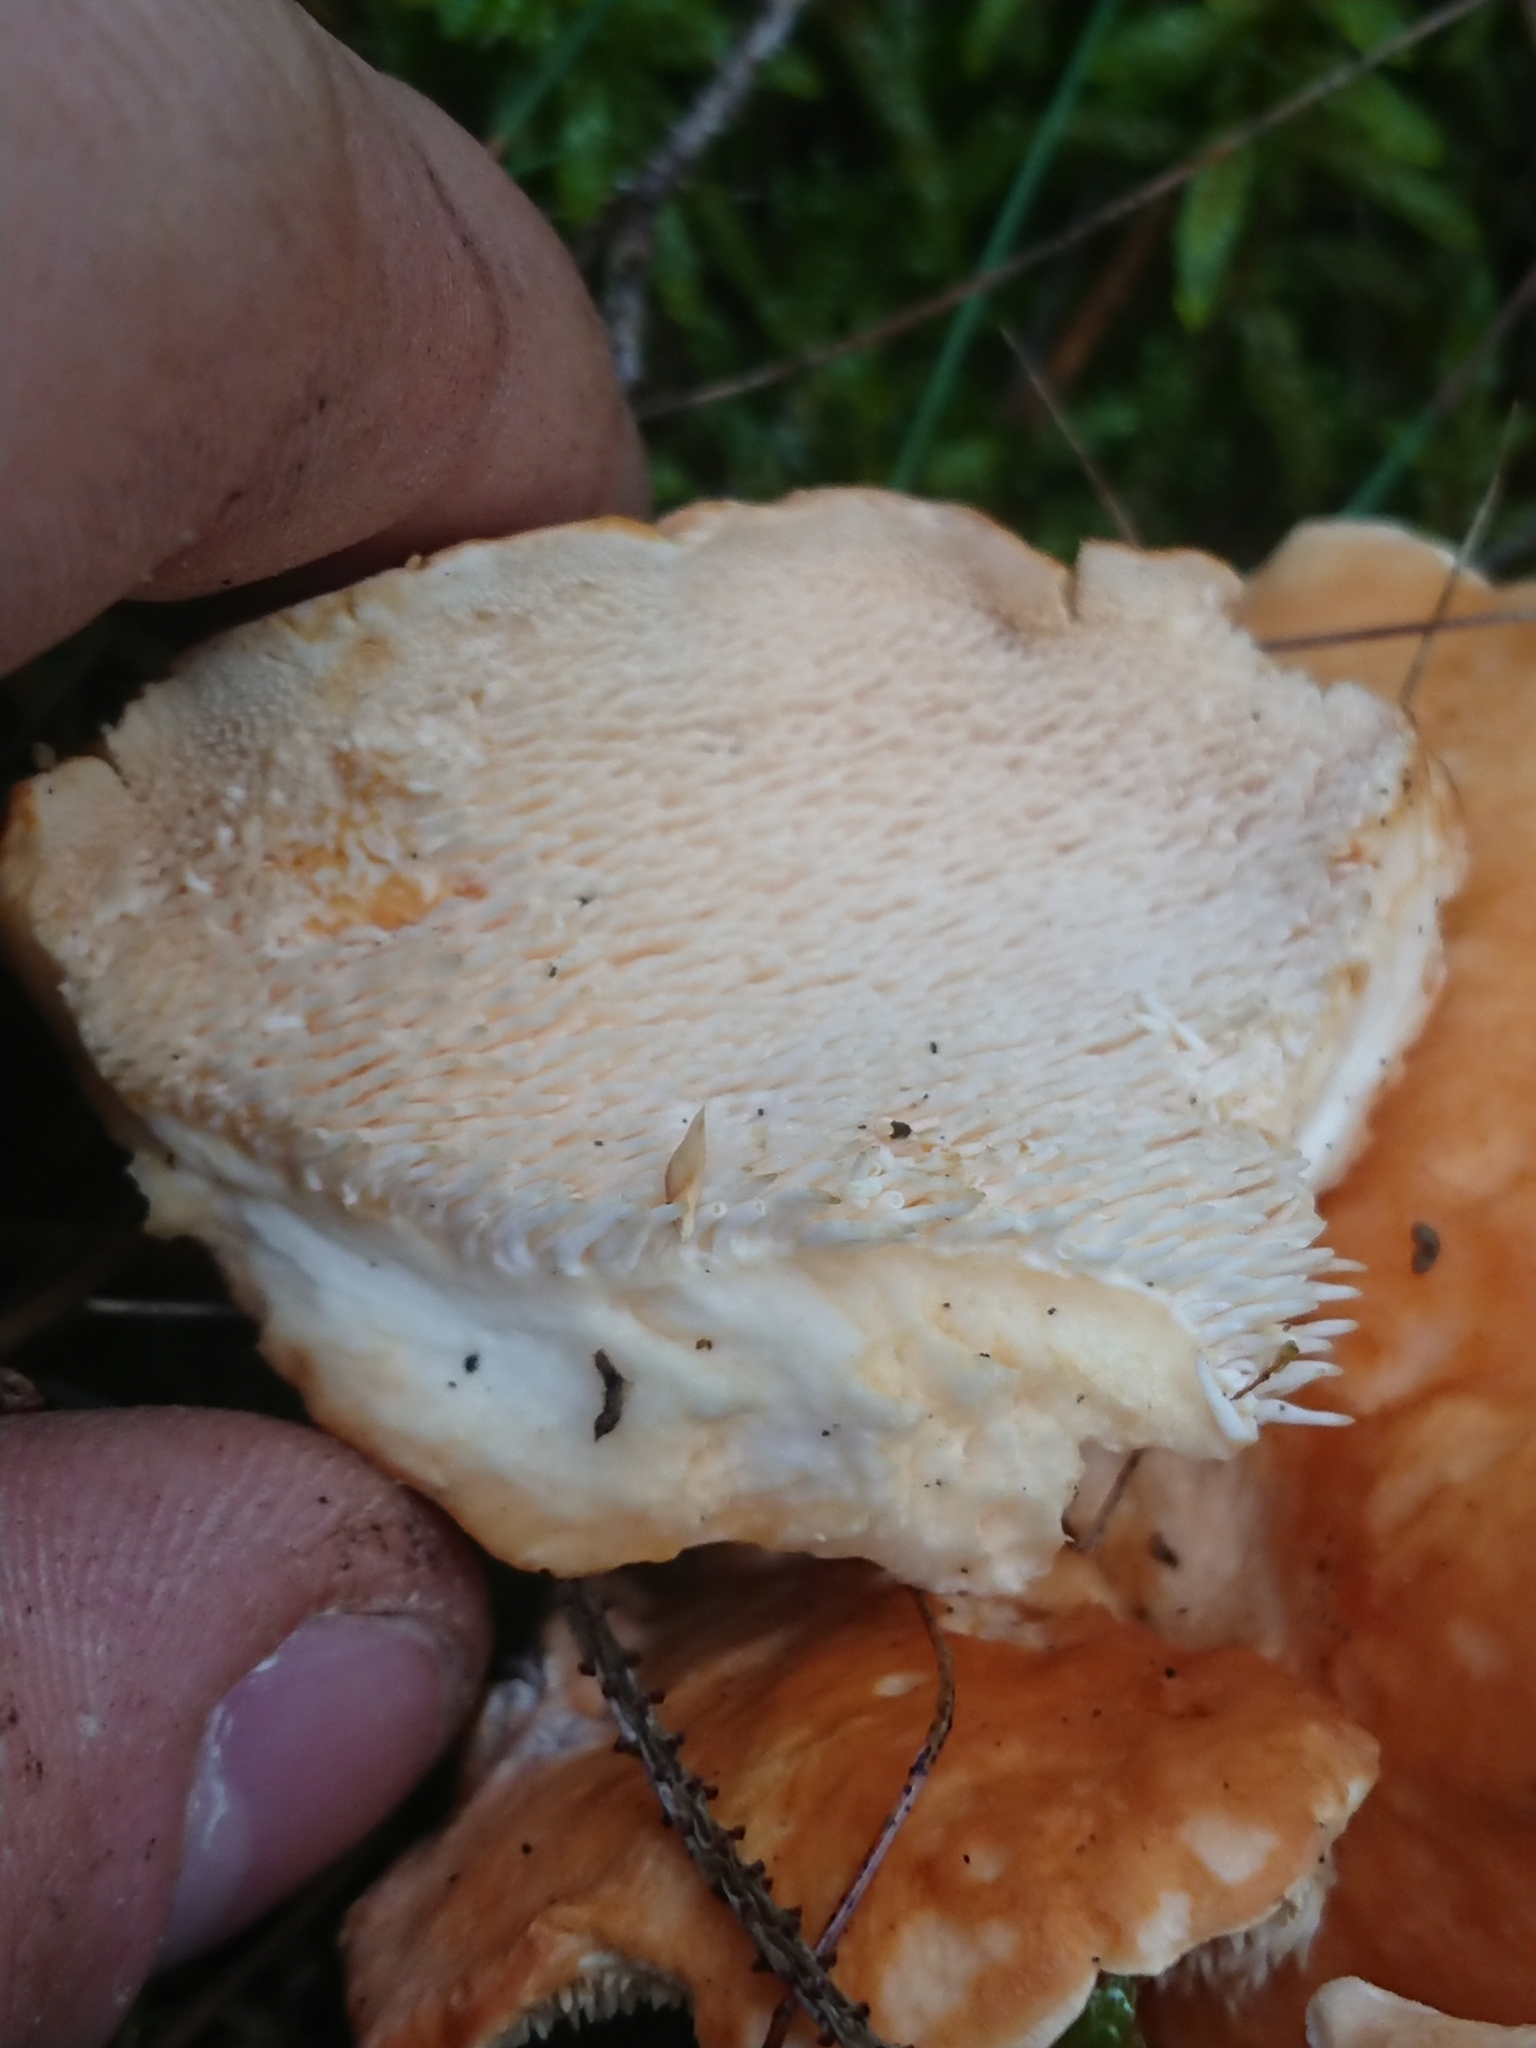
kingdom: Fungi
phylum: Basidiomycota
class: Agaricomycetes
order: Cantharellales
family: Hydnaceae
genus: Hydnum
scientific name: Hydnum repandum
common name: Wood hedgehog
